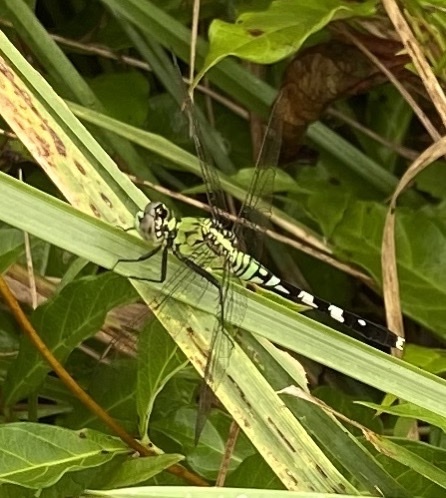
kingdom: Animalia
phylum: Arthropoda
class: Insecta
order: Odonata
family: Libellulidae
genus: Erythemis
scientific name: Erythemis simplicicollis
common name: Eastern pondhawk
